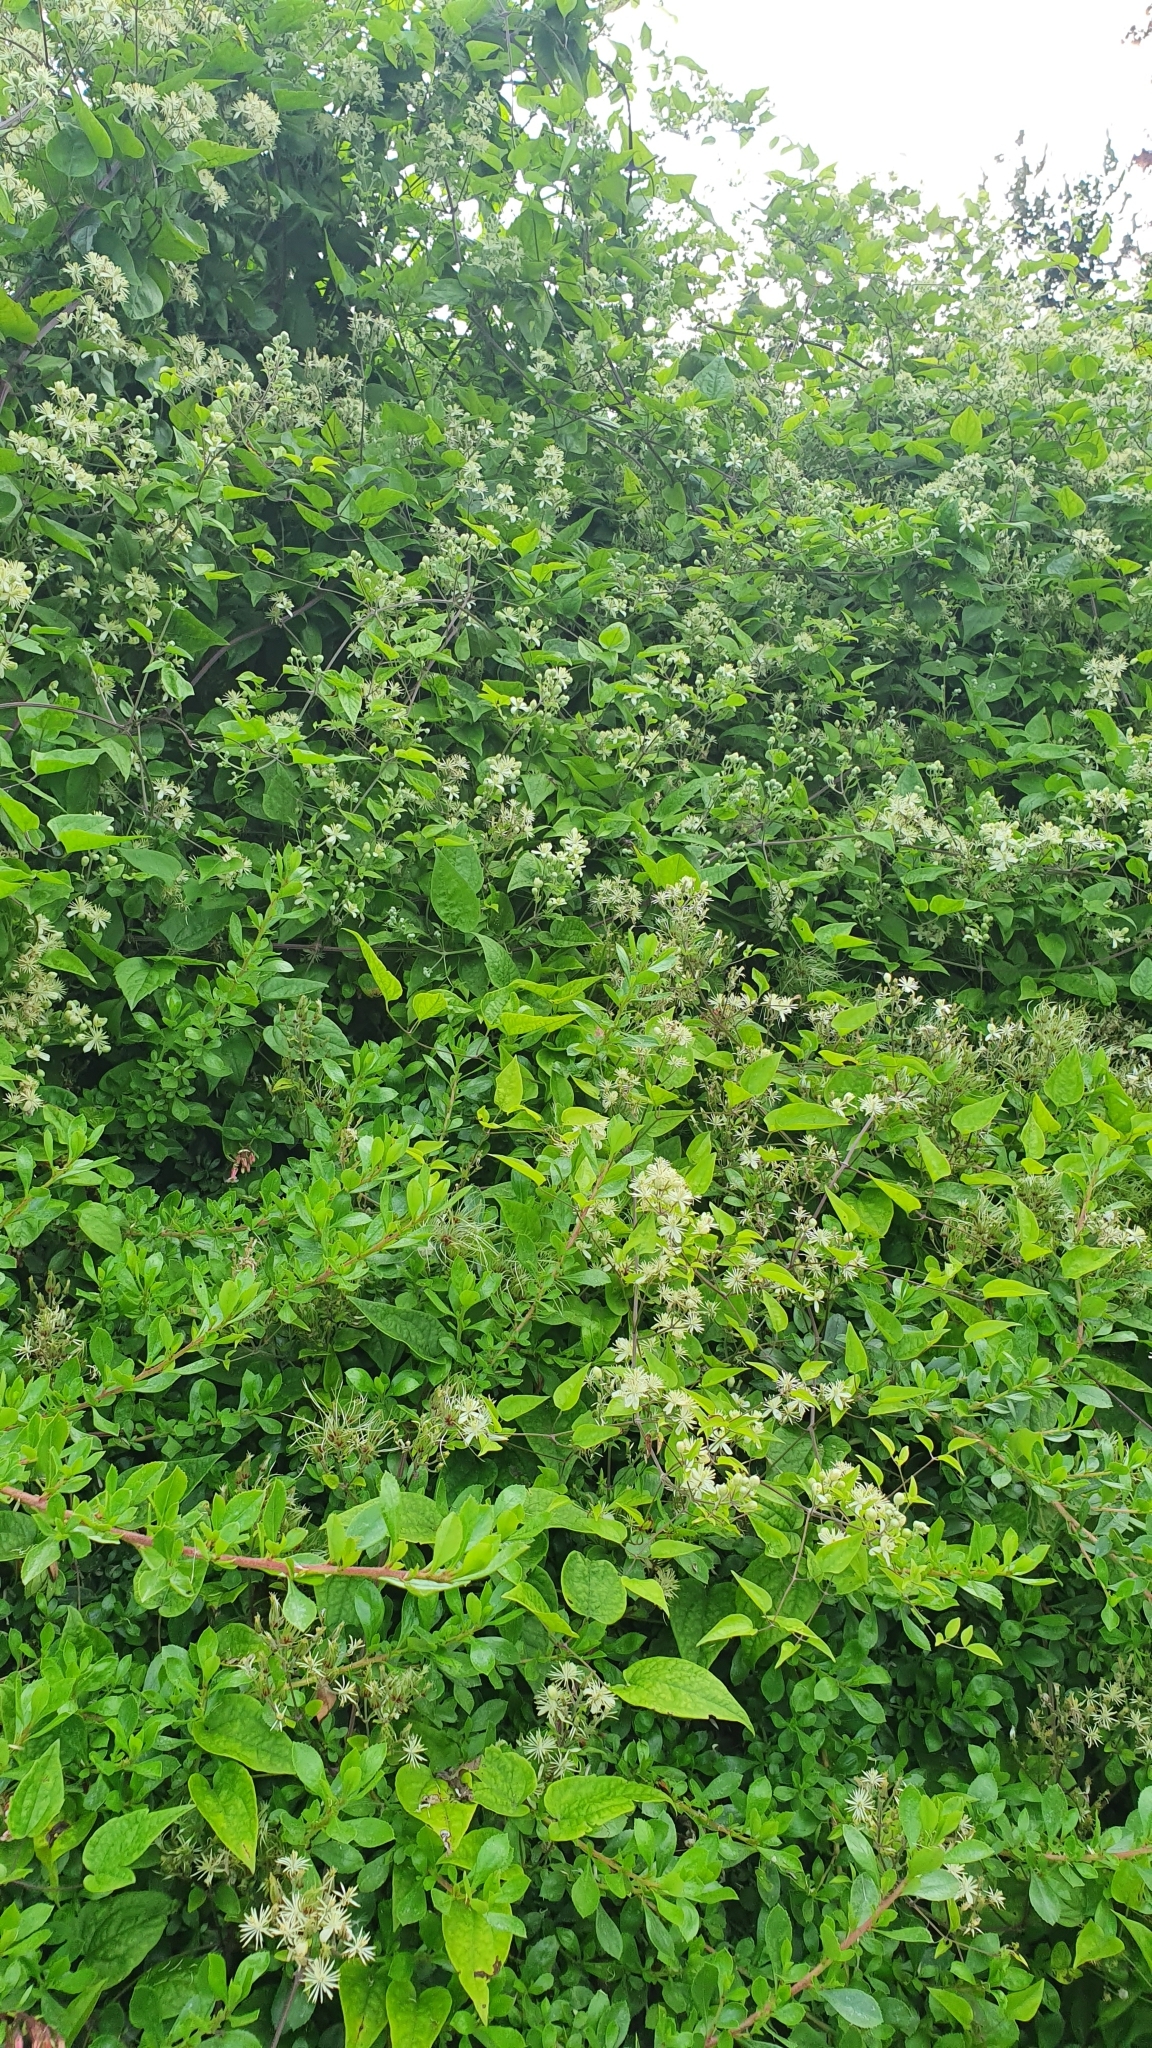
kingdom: Plantae
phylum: Tracheophyta
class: Magnoliopsida
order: Ranunculales
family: Ranunculaceae
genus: Clematis
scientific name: Clematis vitalba
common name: Evergreen clematis
